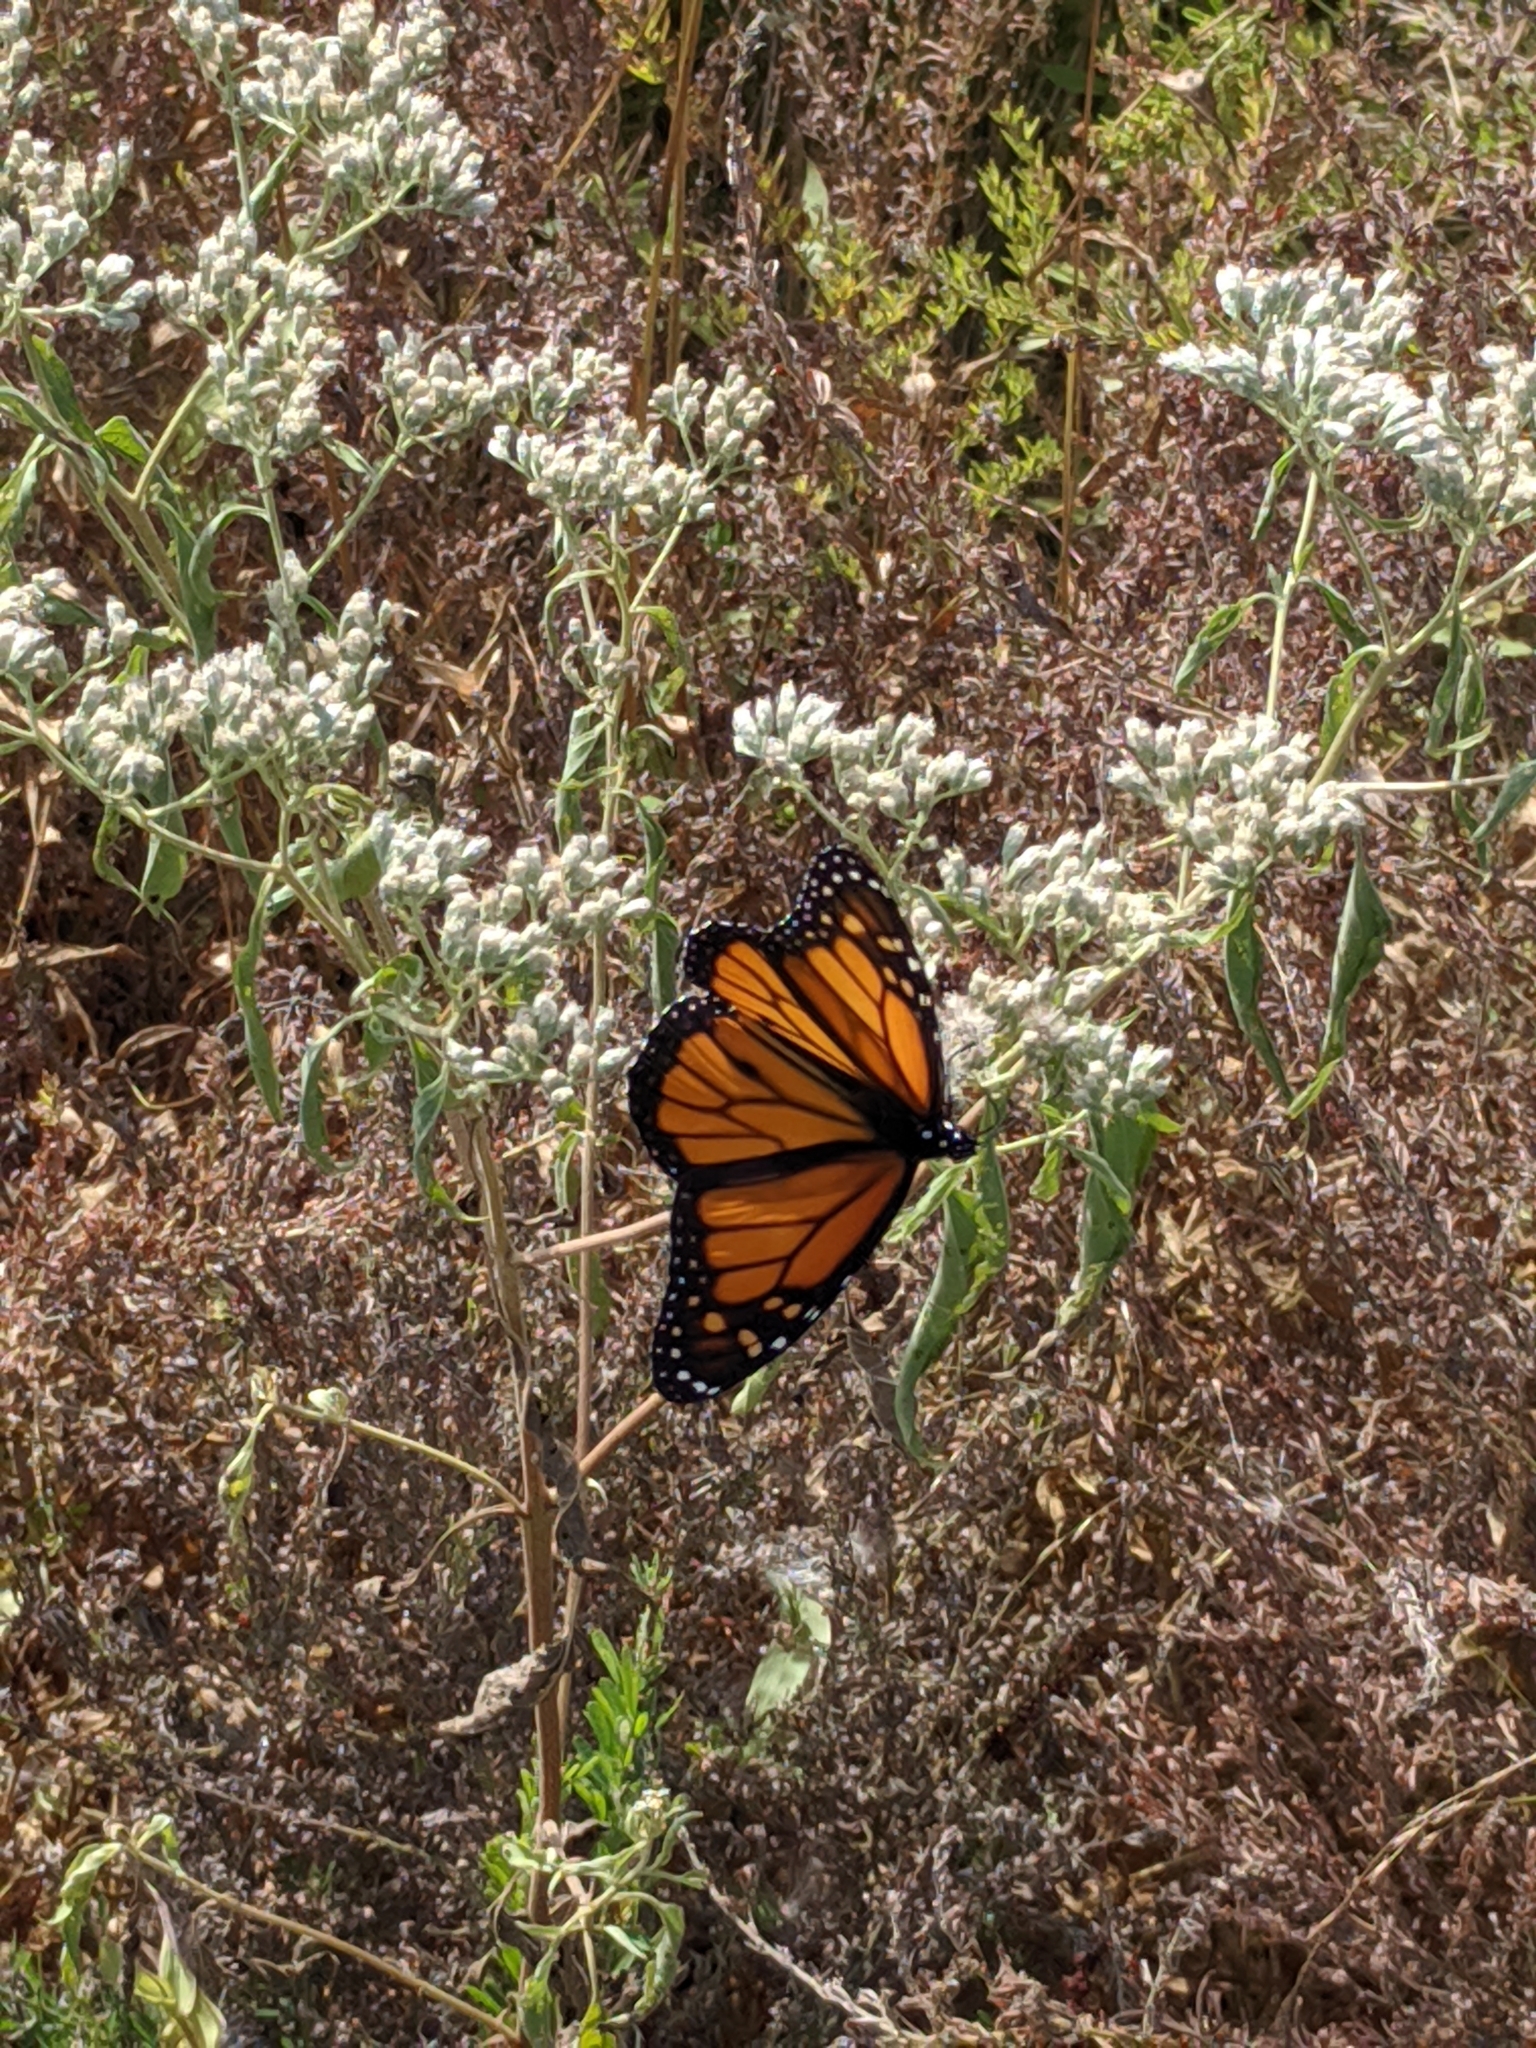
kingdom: Animalia
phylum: Arthropoda
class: Insecta
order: Lepidoptera
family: Nymphalidae
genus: Danaus
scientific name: Danaus plexippus
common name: Monarch
